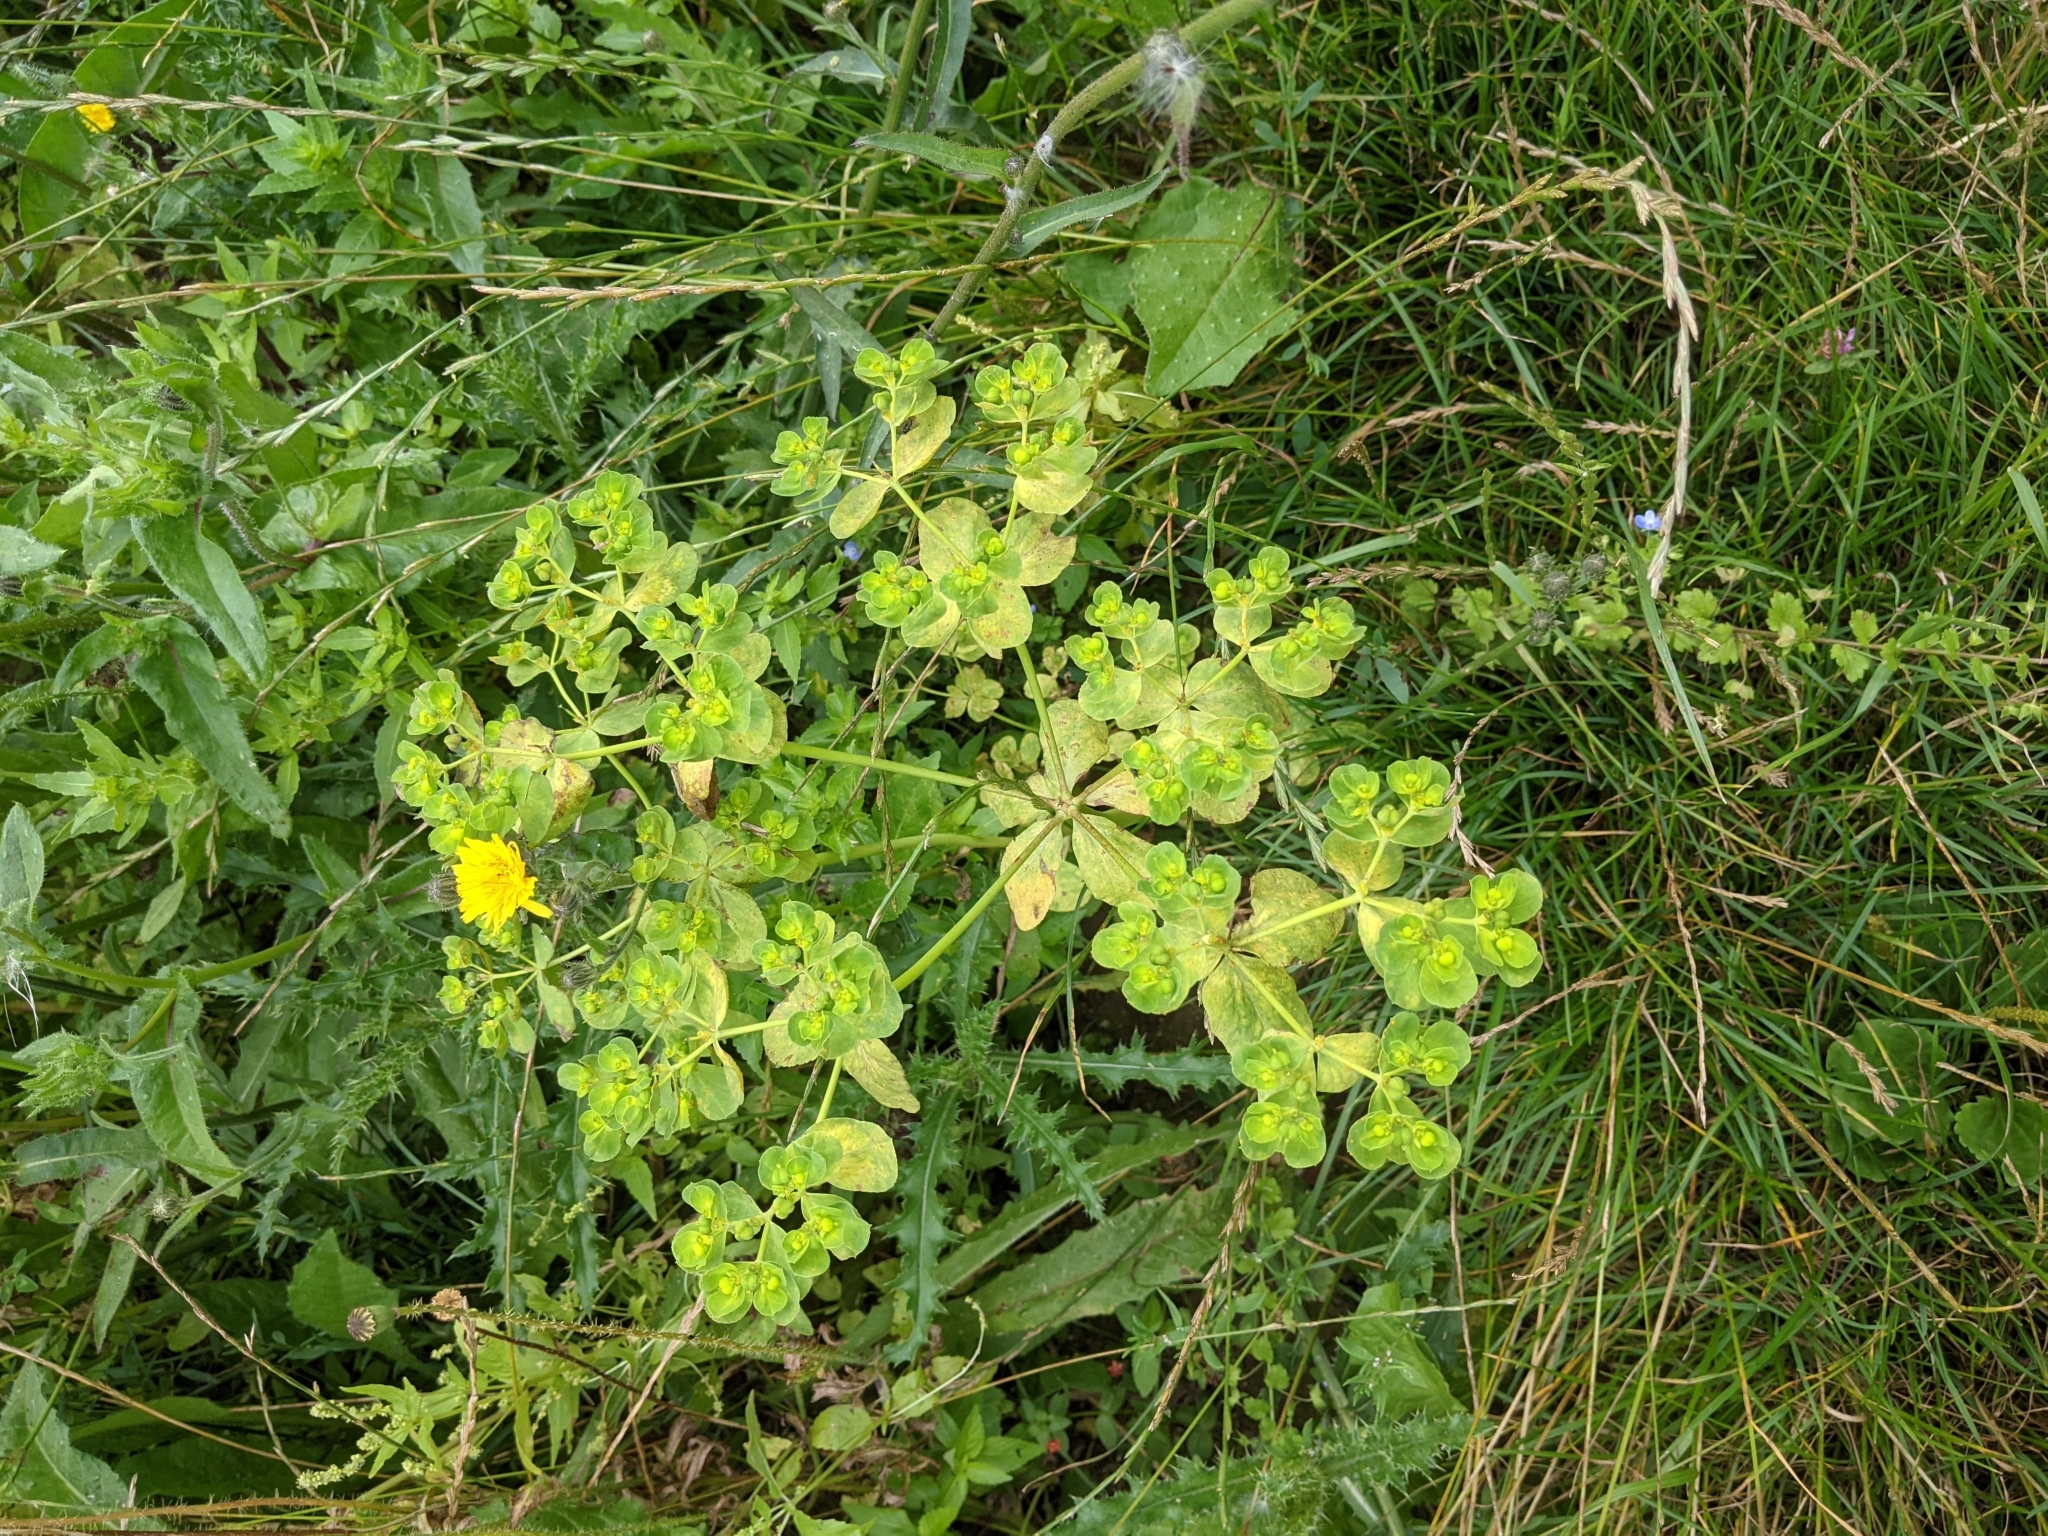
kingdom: Plantae
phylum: Tracheophyta
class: Magnoliopsida
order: Malpighiales
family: Euphorbiaceae
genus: Euphorbia
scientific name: Euphorbia helioscopia
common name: Sun spurge
